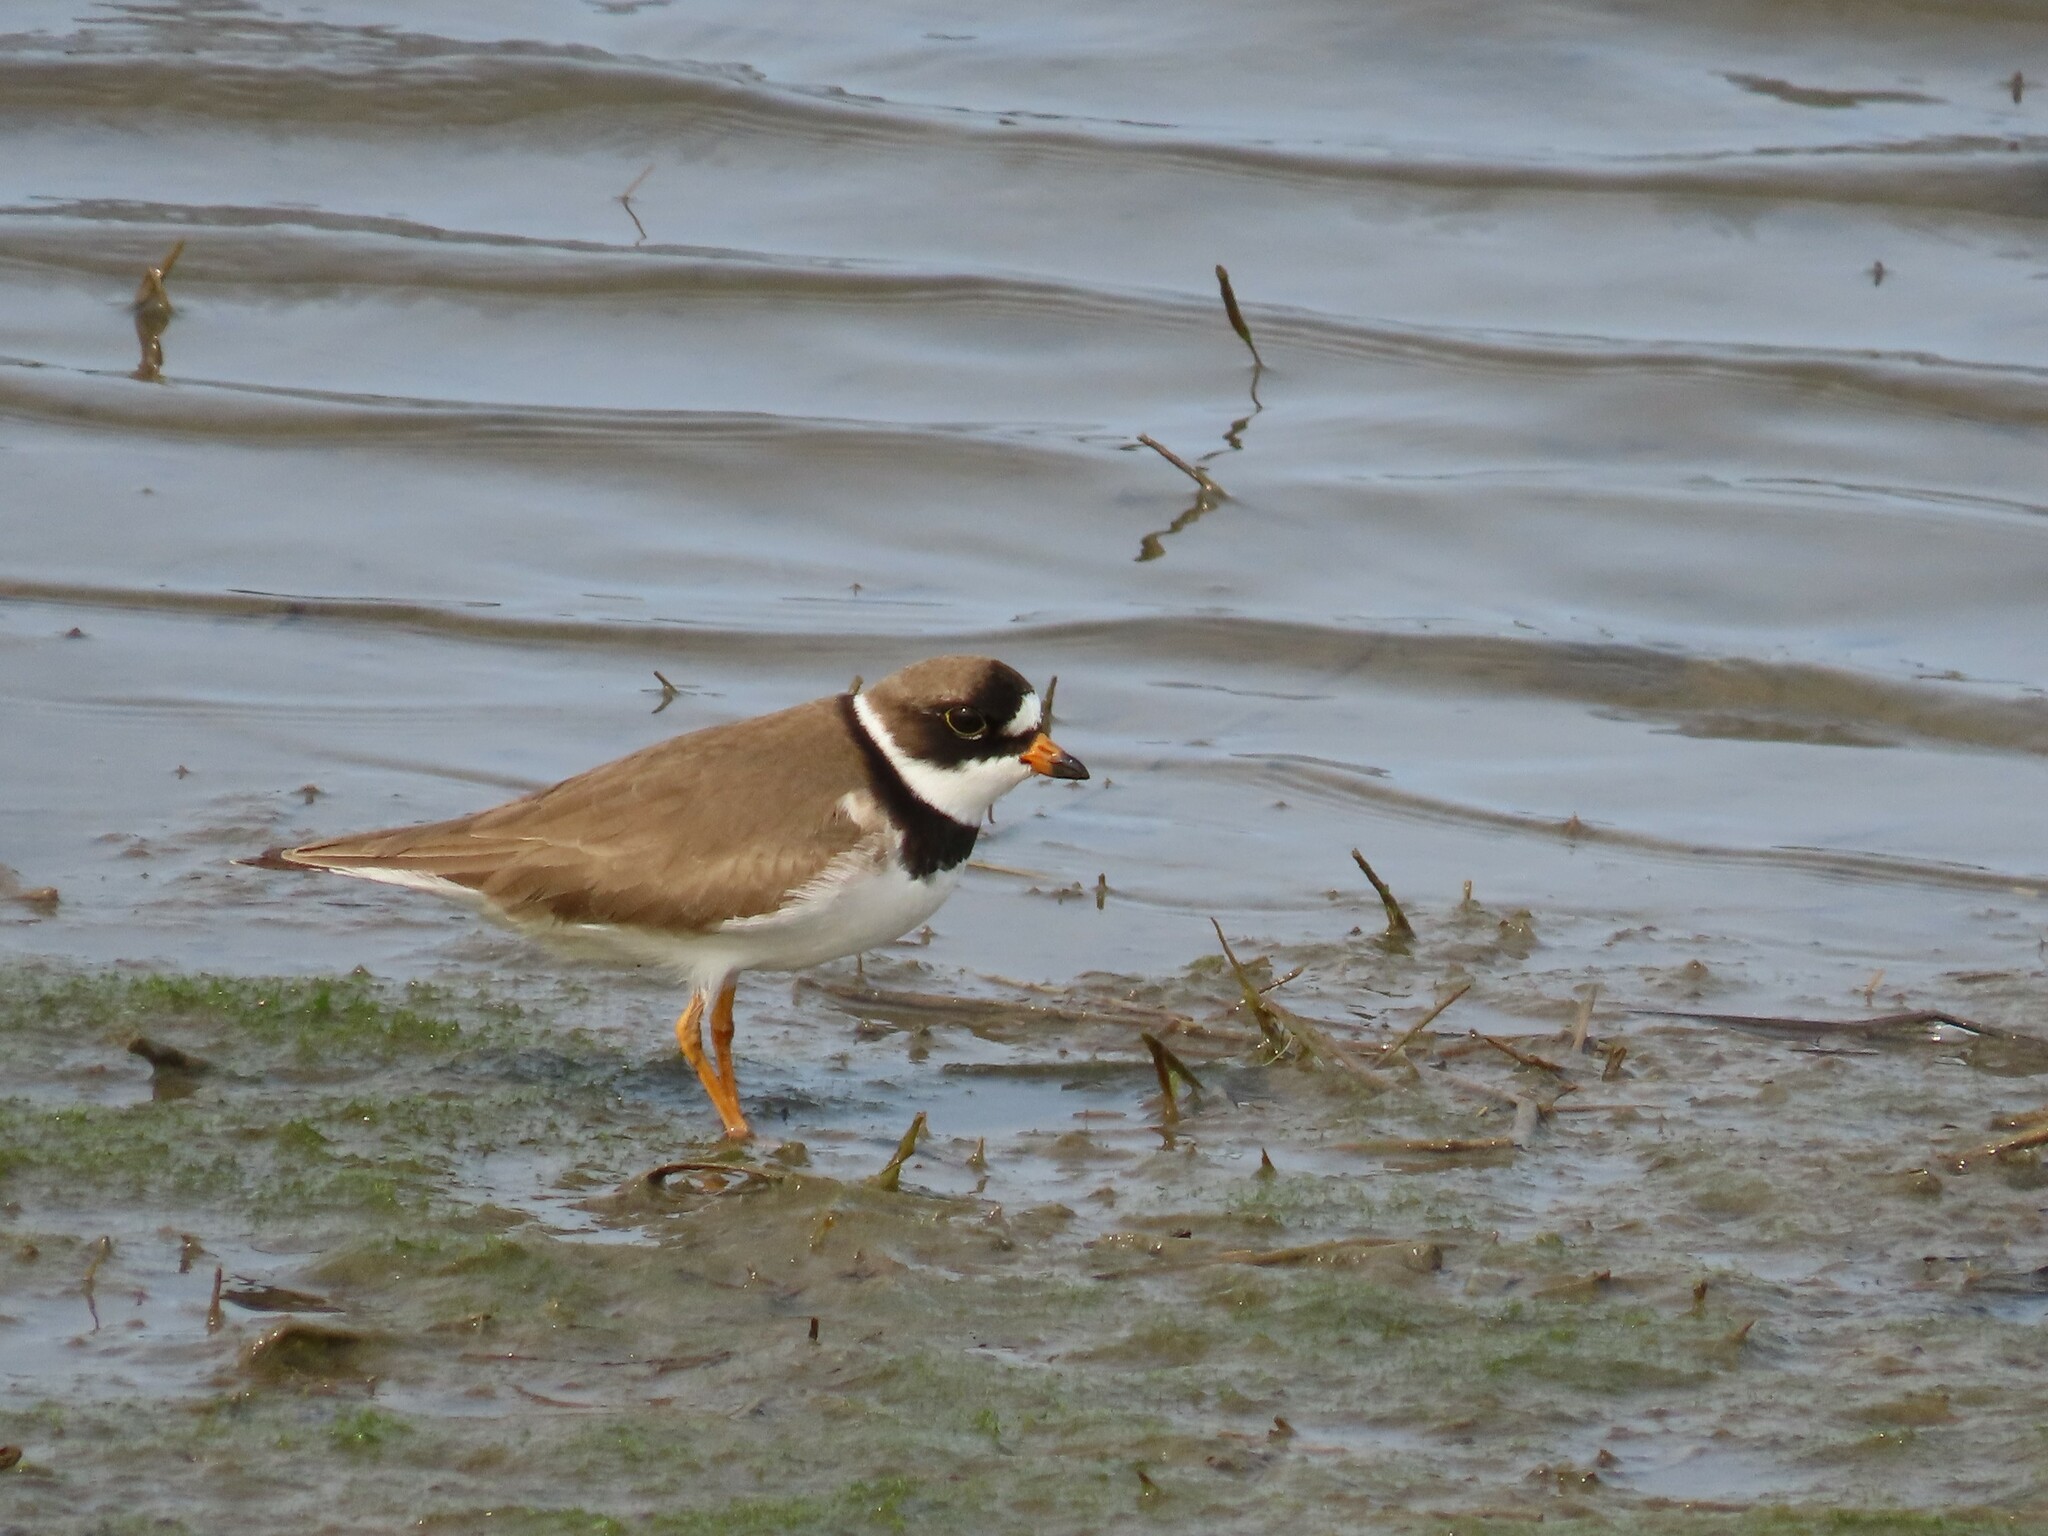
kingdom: Animalia
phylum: Chordata
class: Aves
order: Charadriiformes
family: Charadriidae
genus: Charadrius
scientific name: Charadrius semipalmatus
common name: Semipalmated plover
